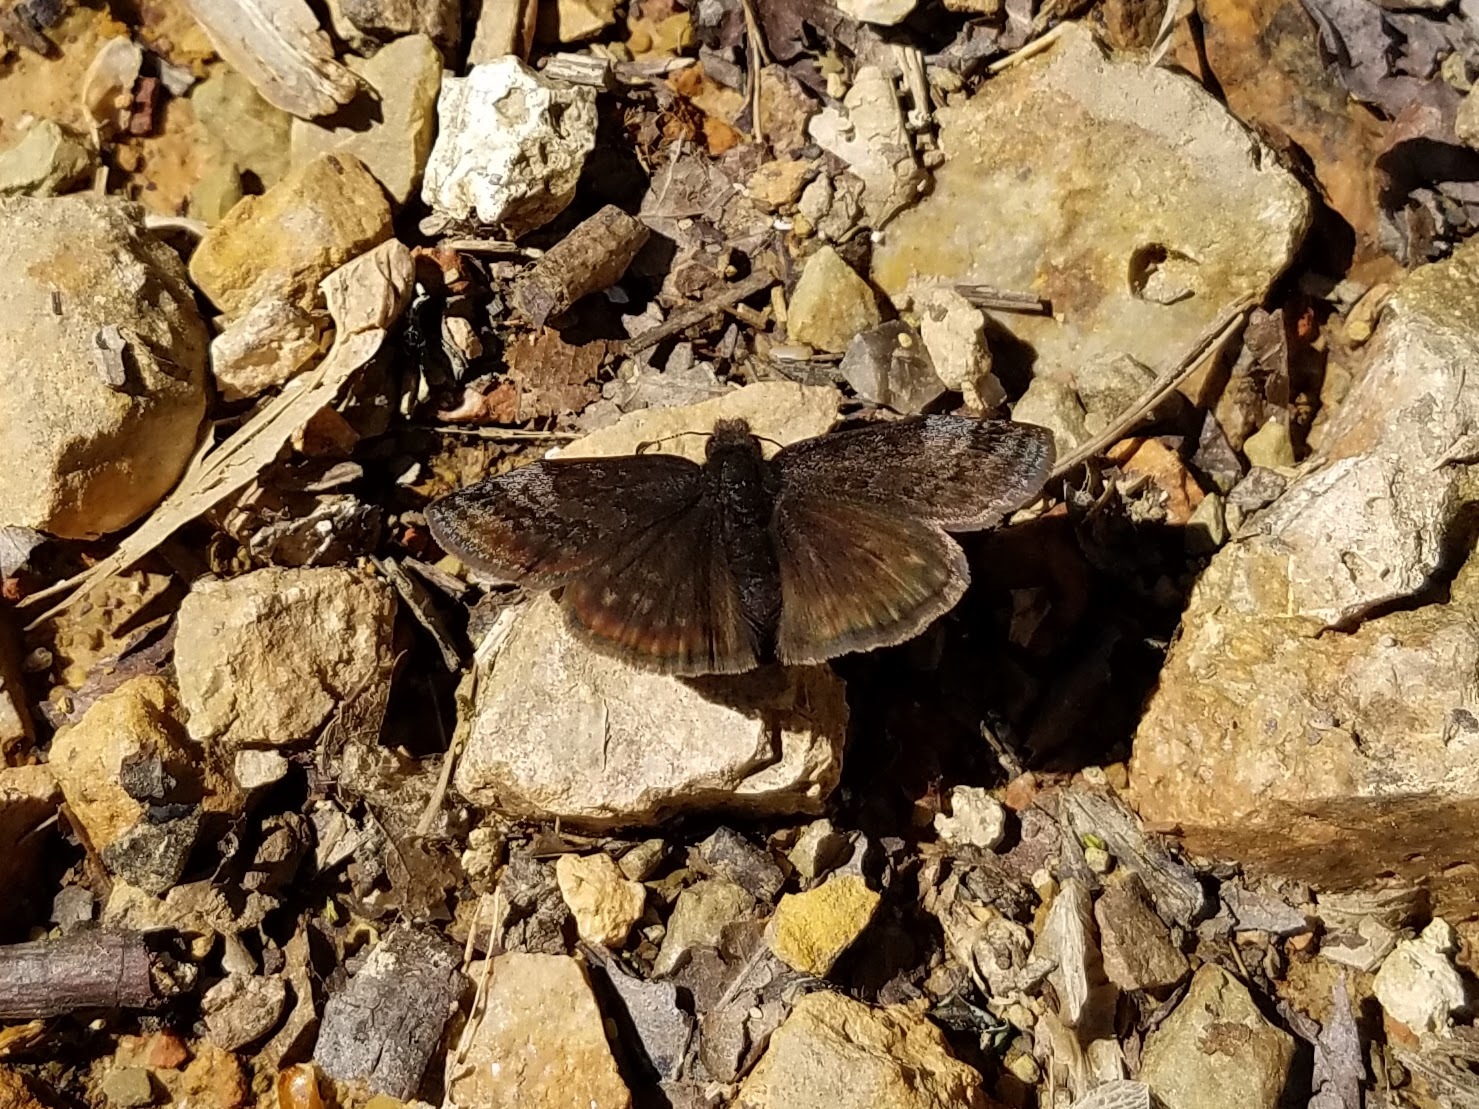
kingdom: Animalia
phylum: Arthropoda
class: Insecta
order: Lepidoptera
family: Hesperiidae
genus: Erynnis
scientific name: Erynnis brizo
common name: Sleepy duskywing
